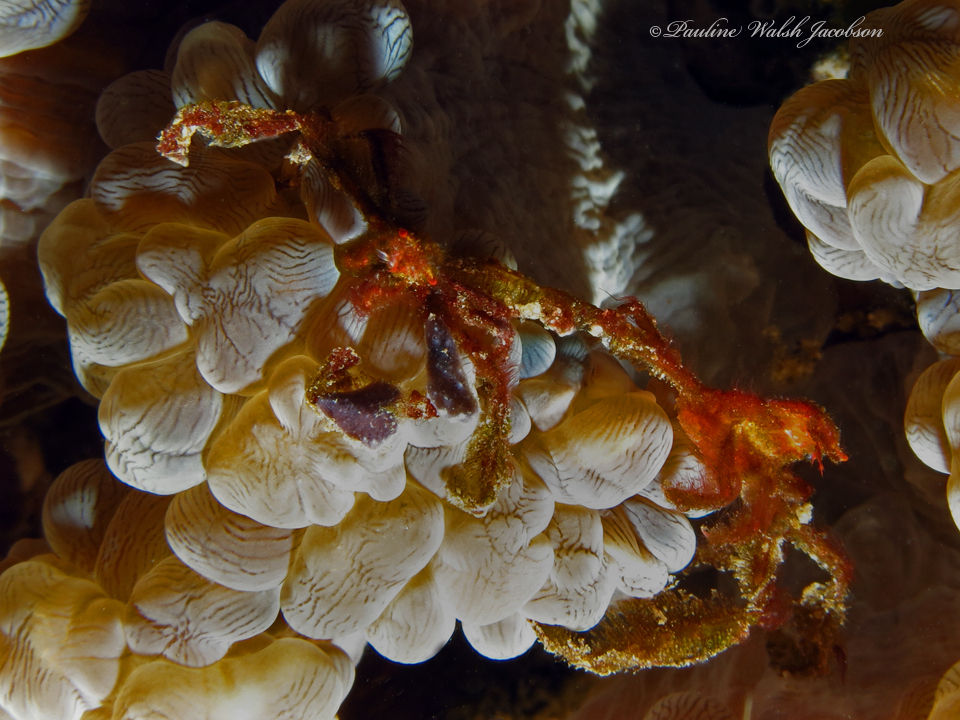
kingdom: Animalia
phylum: Arthropoda
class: Malacostraca
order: Decapoda
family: Inachidae
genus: Achaeus
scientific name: Achaeus japonicus
